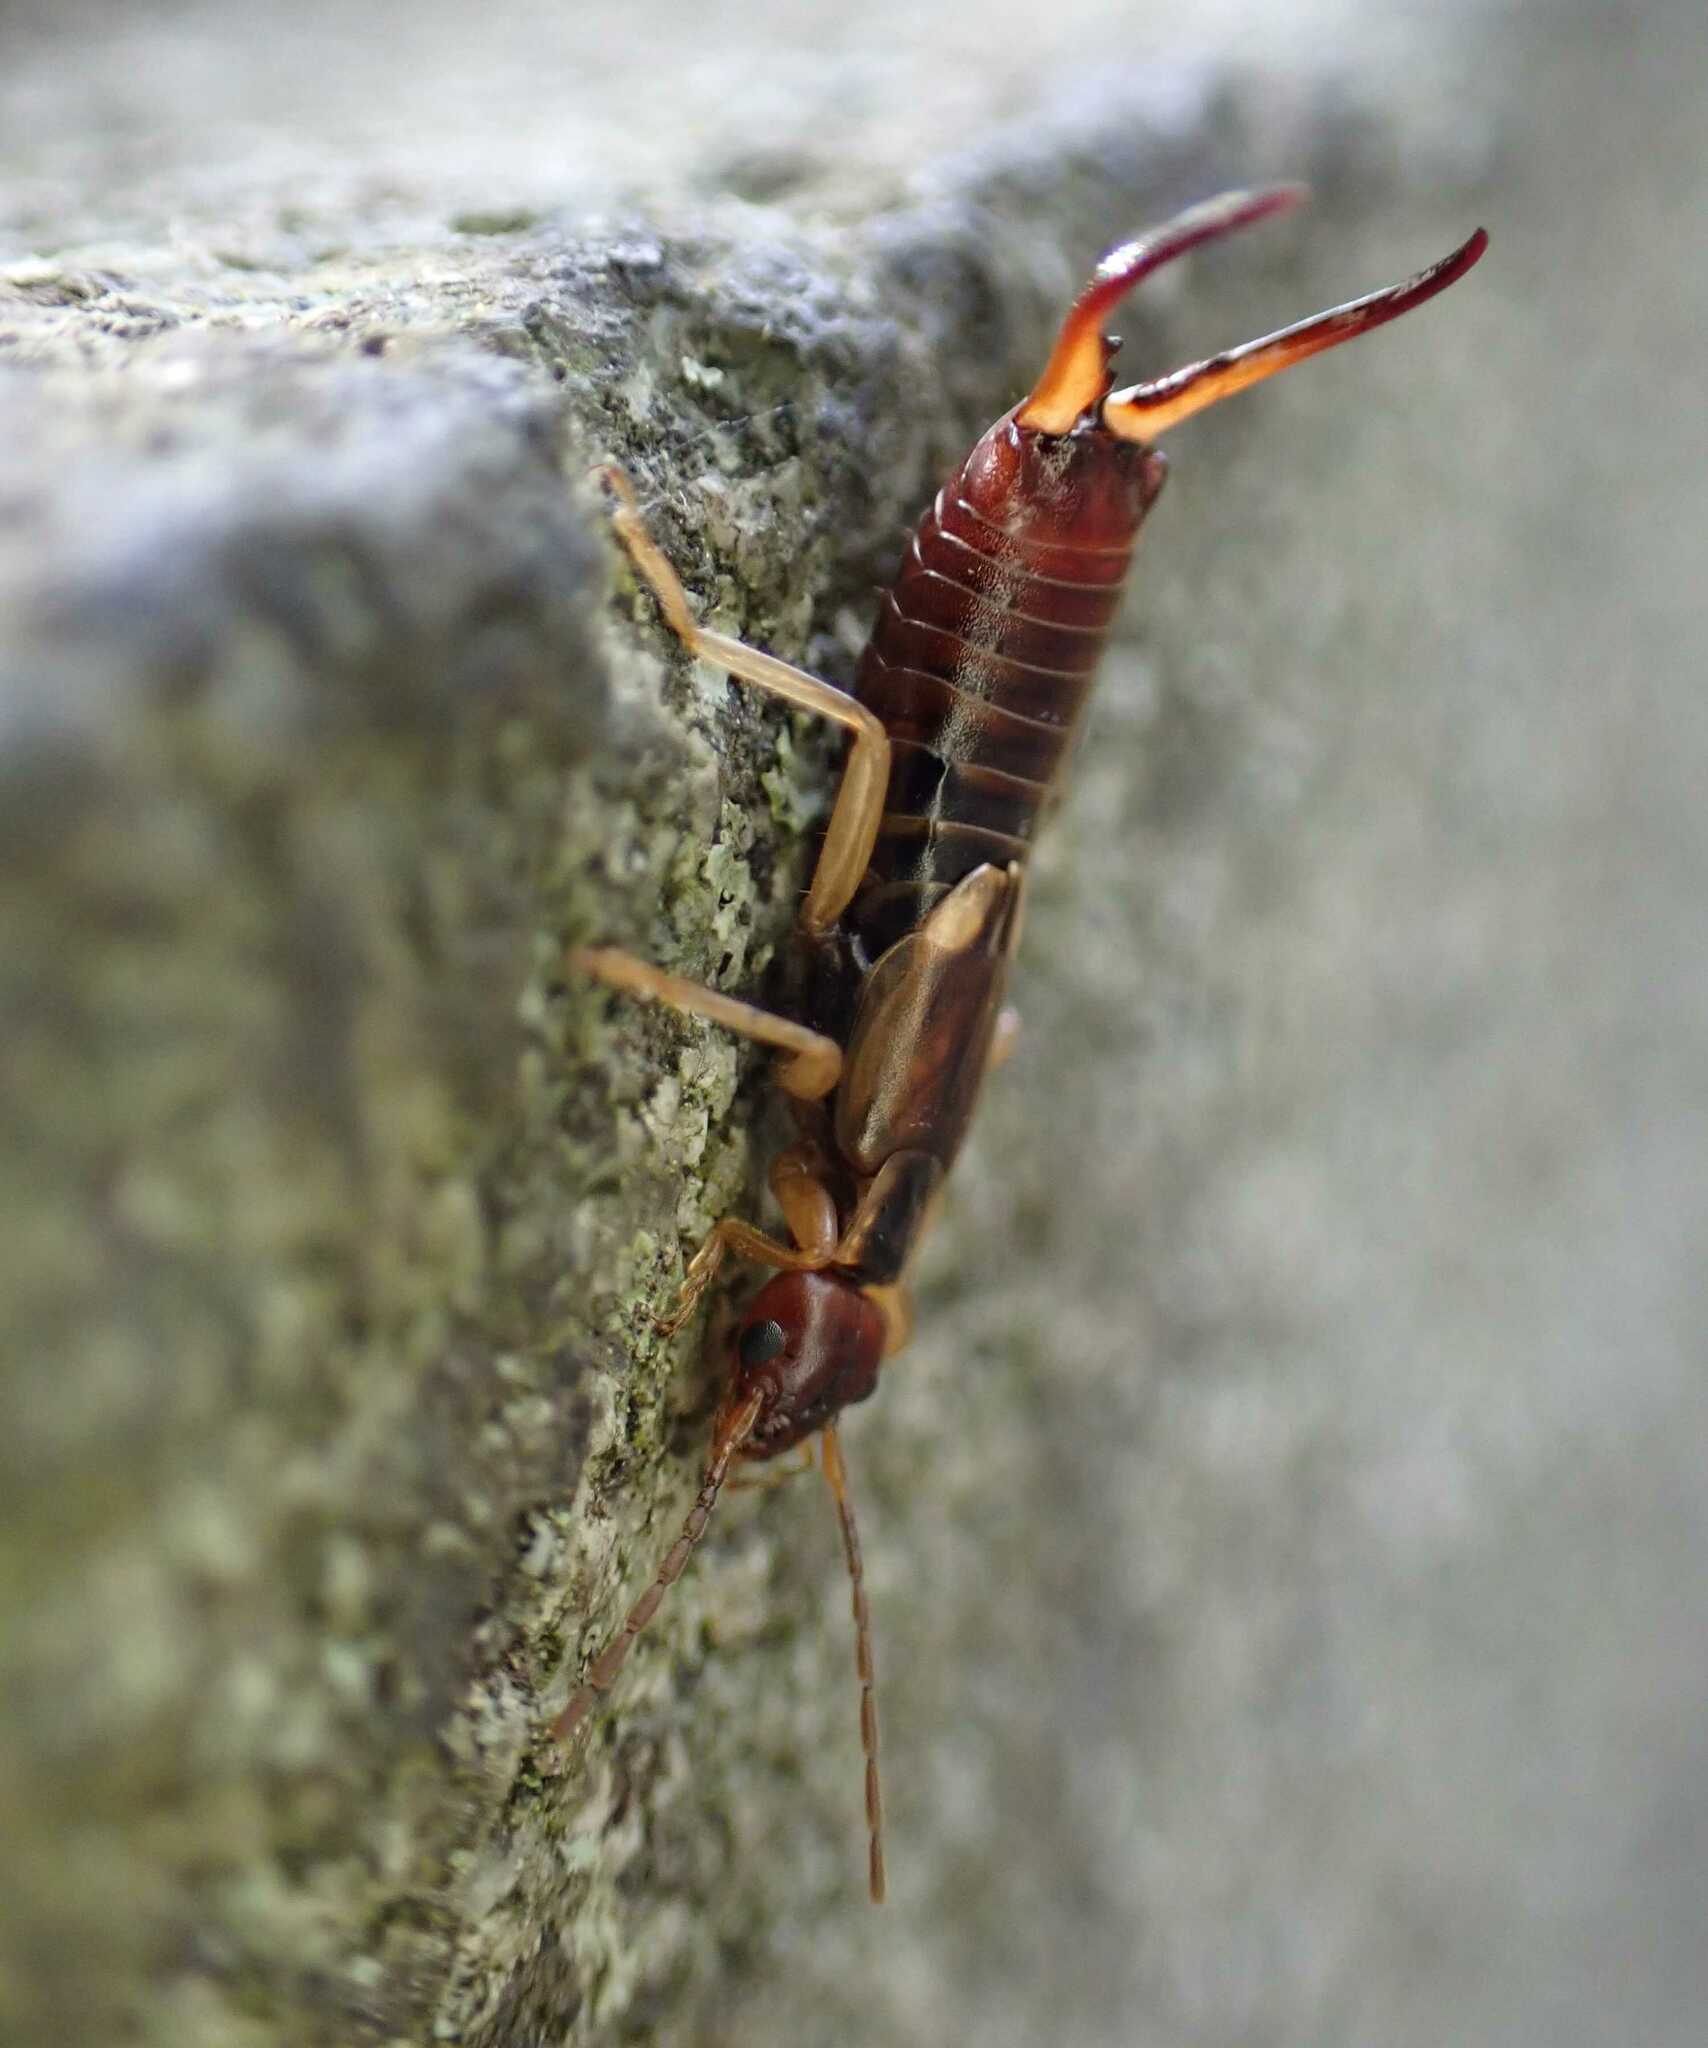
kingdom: Animalia
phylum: Arthropoda
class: Insecta
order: Dermaptera
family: Forficulidae
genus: Forficula
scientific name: Forficula
